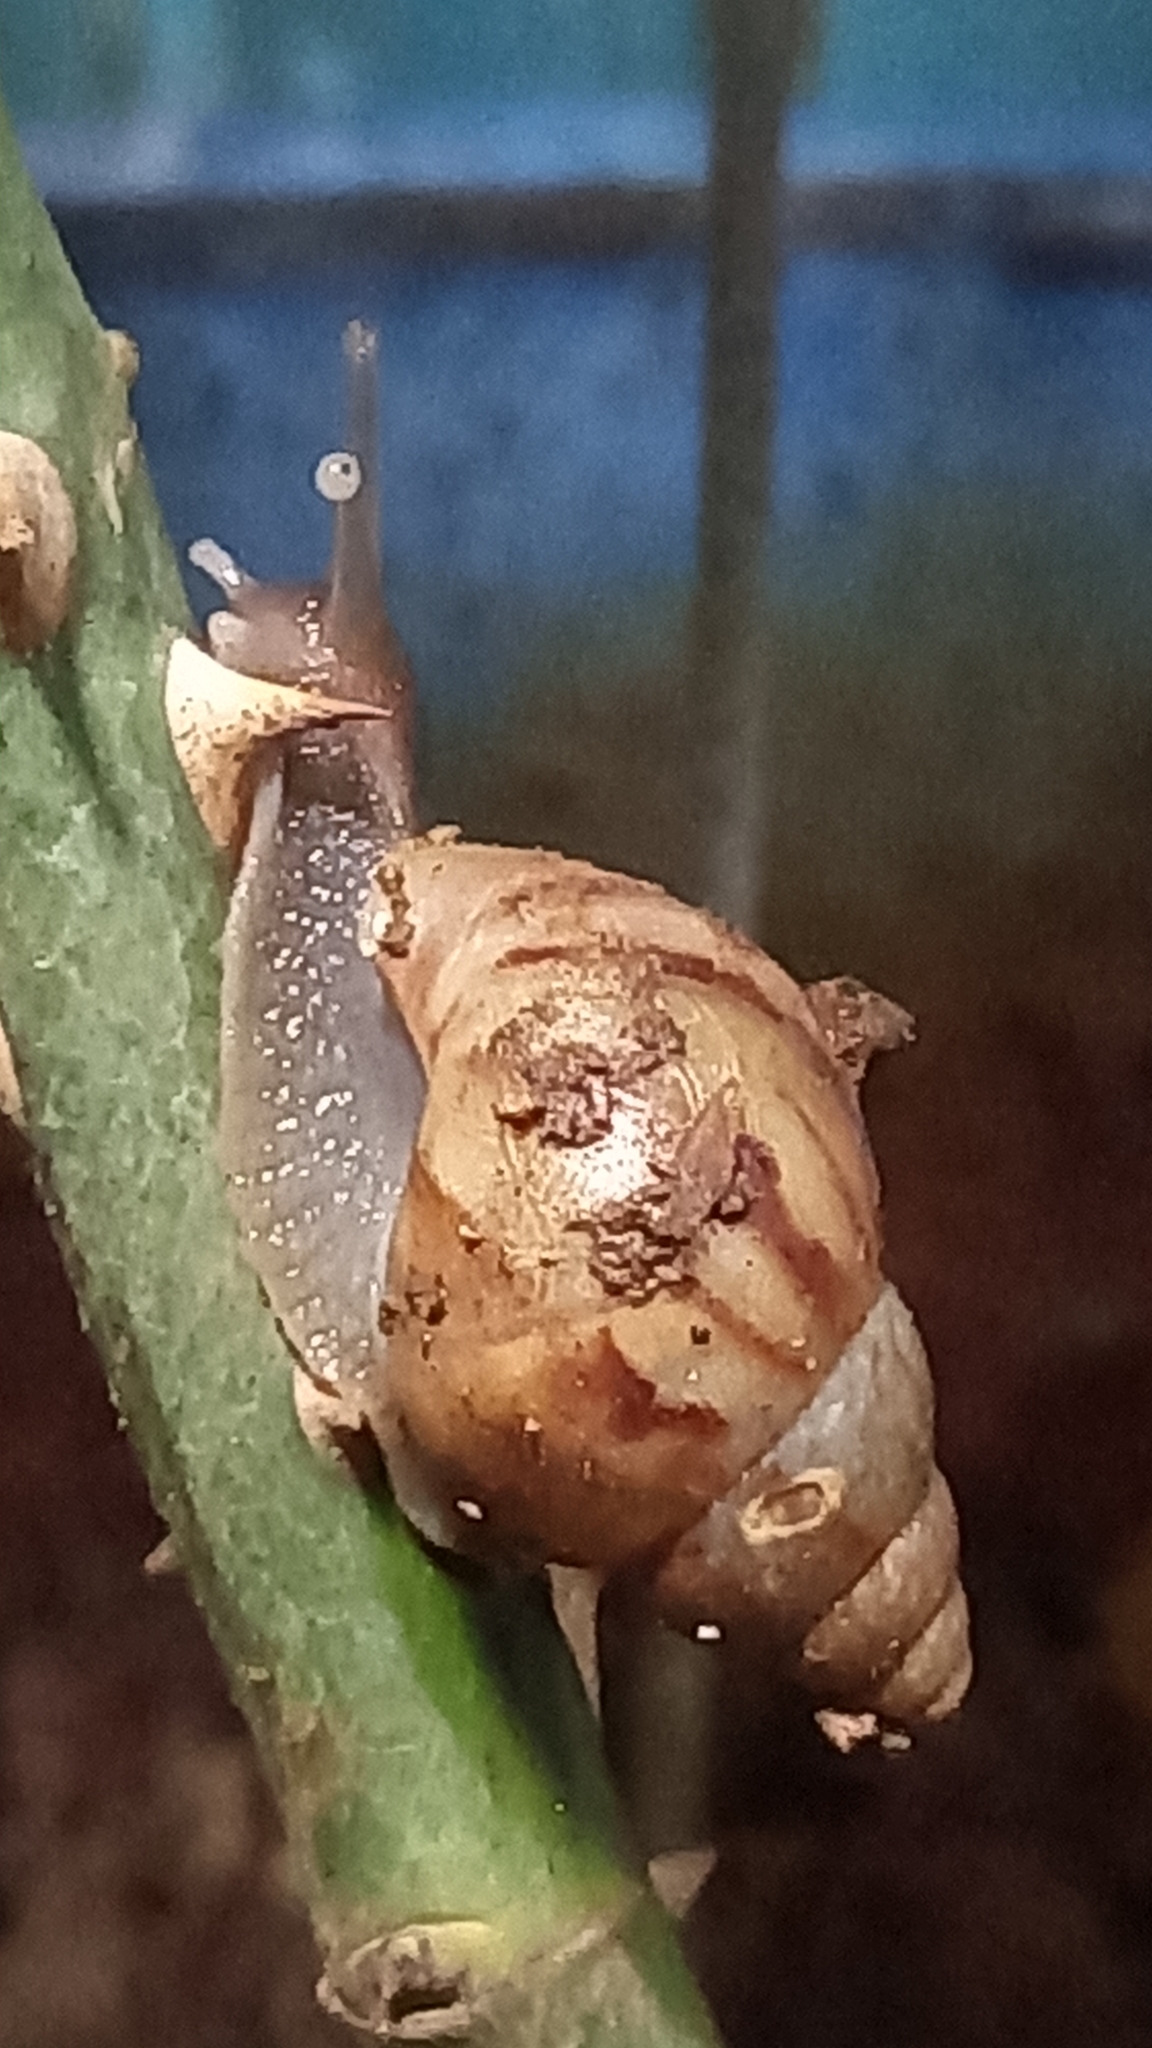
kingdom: Animalia
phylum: Mollusca
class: Gastropoda
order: Stylommatophora
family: Achatinidae
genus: Lissachatina
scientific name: Lissachatina fulica
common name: Giant african snail
